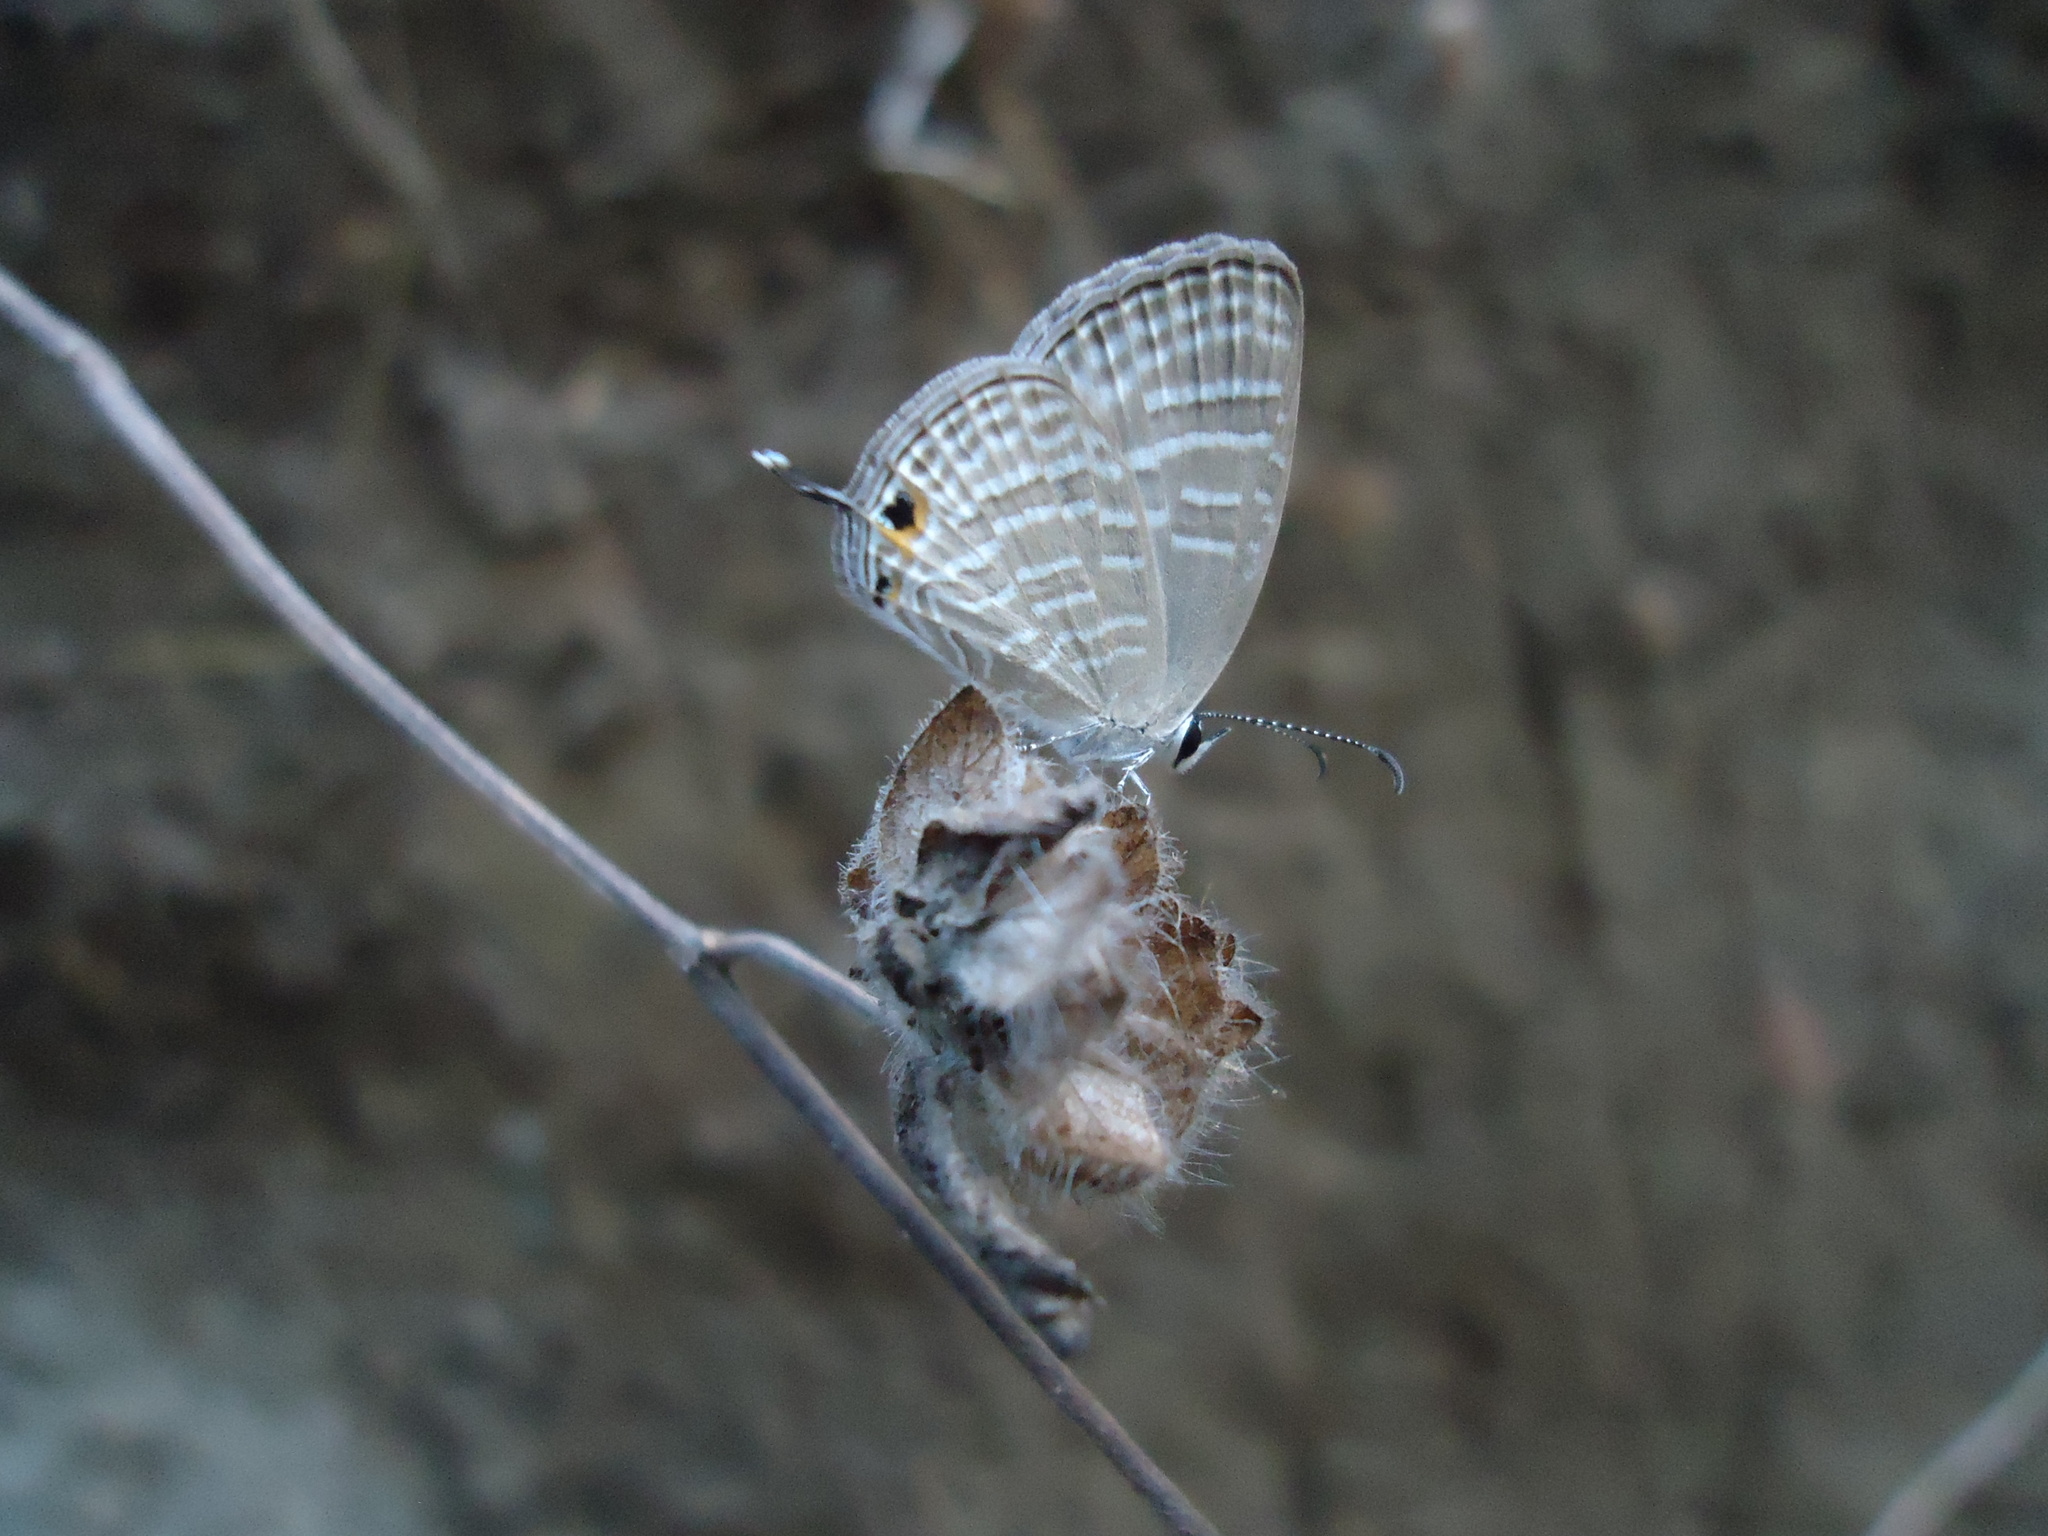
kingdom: Animalia
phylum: Arthropoda
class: Insecta
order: Lepidoptera
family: Lycaenidae
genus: Jamides
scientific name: Jamides celeno
